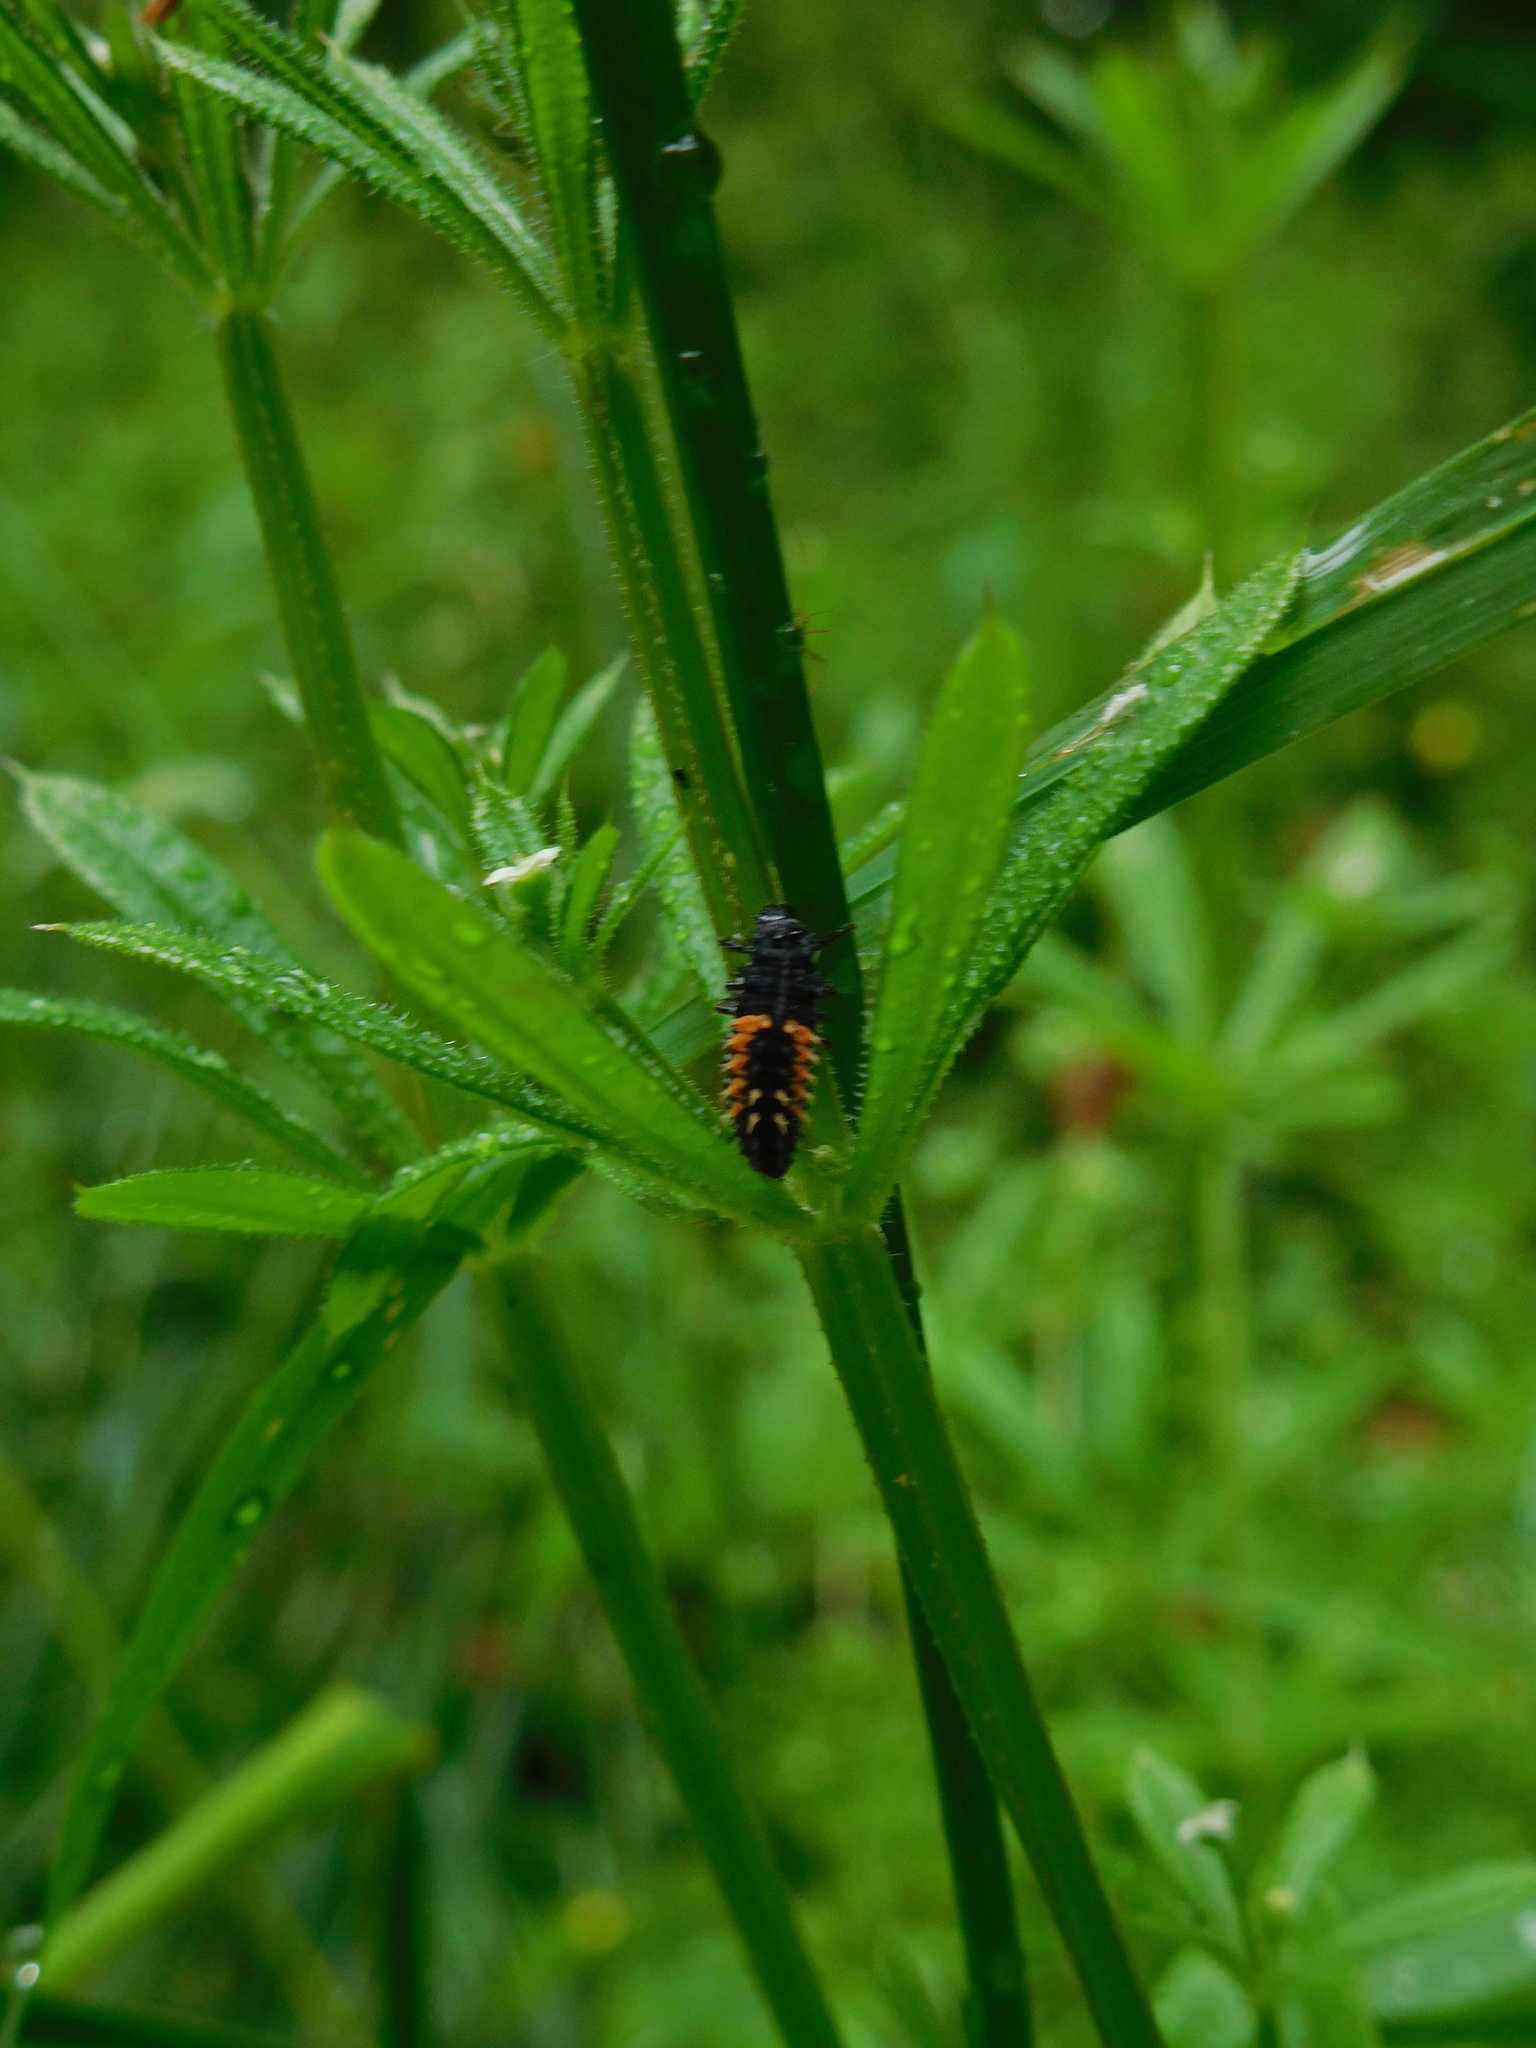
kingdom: Animalia
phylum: Arthropoda
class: Insecta
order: Coleoptera
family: Coccinellidae
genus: Harmonia
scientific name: Harmonia axyridis
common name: Harlequin ladybird
